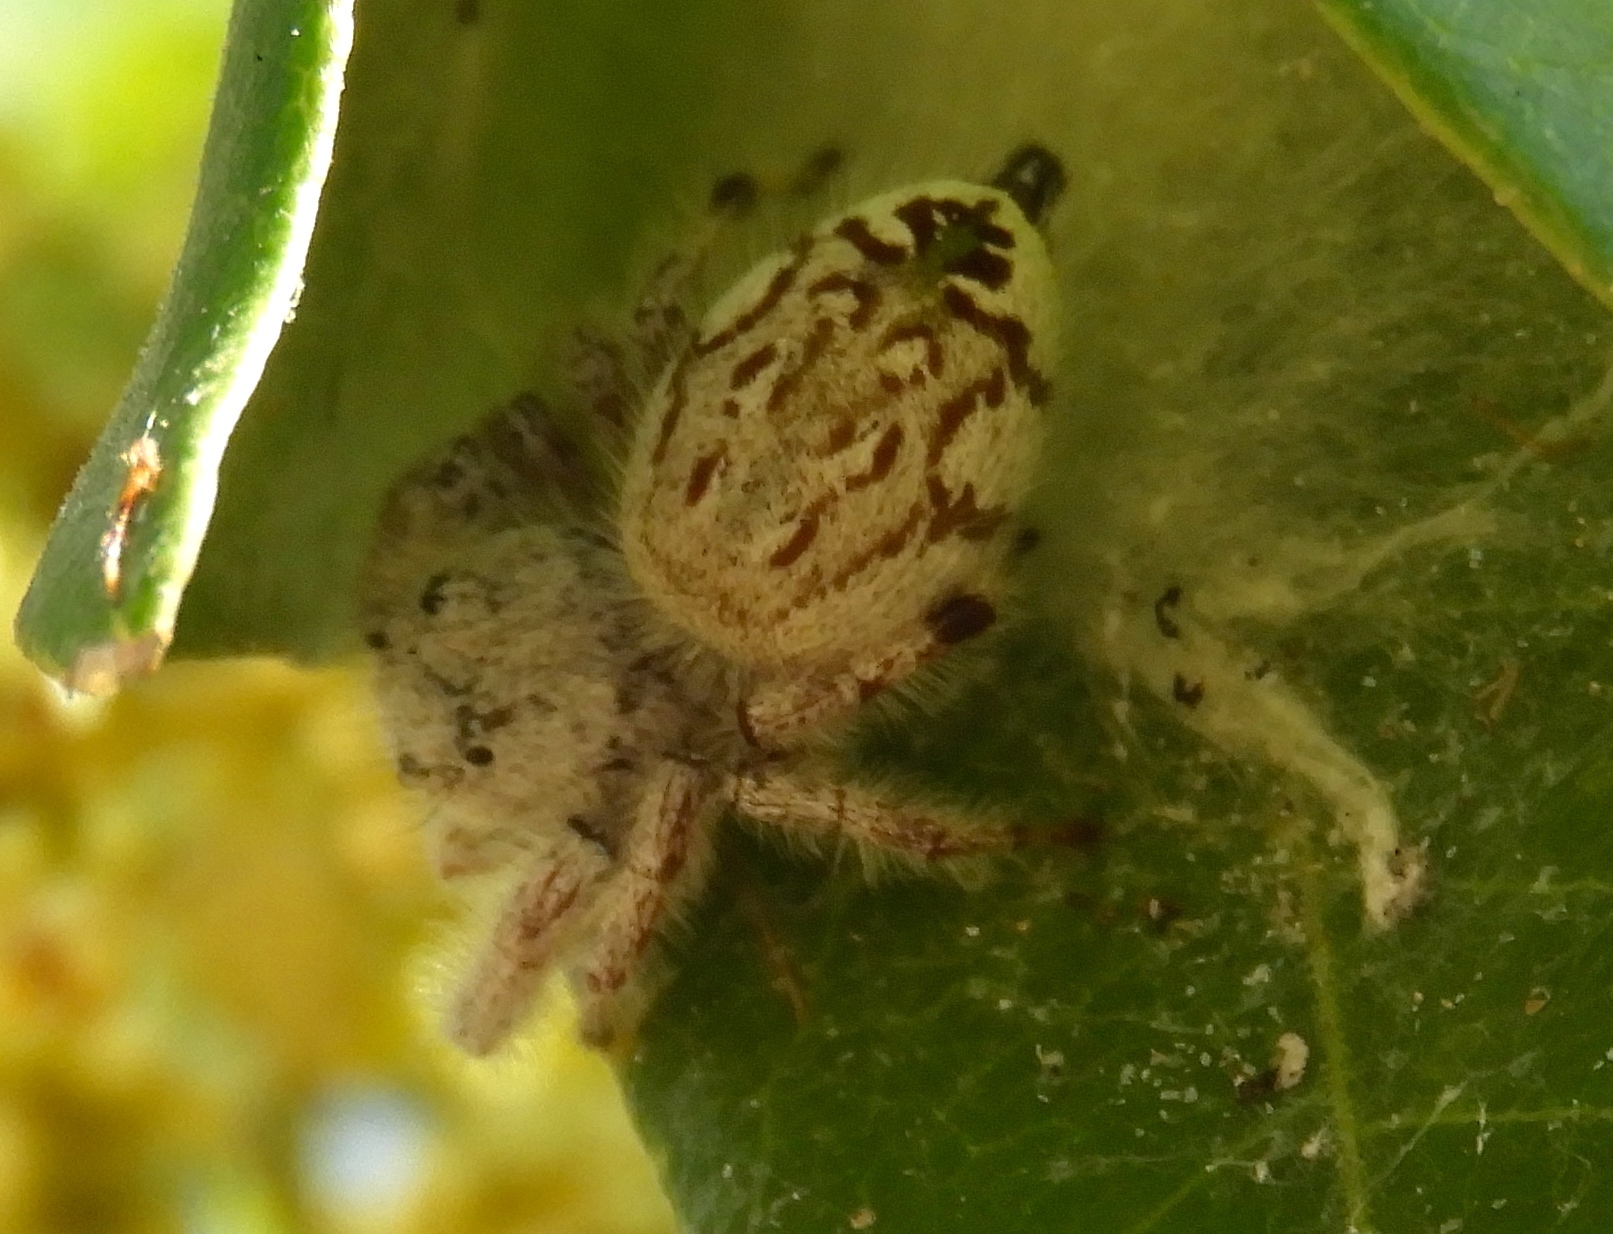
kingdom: Animalia
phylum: Arthropoda
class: Arachnida
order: Araneae
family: Salticidae
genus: Paraphidippus
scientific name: Paraphidippus fartilis
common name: Jumping spiders
